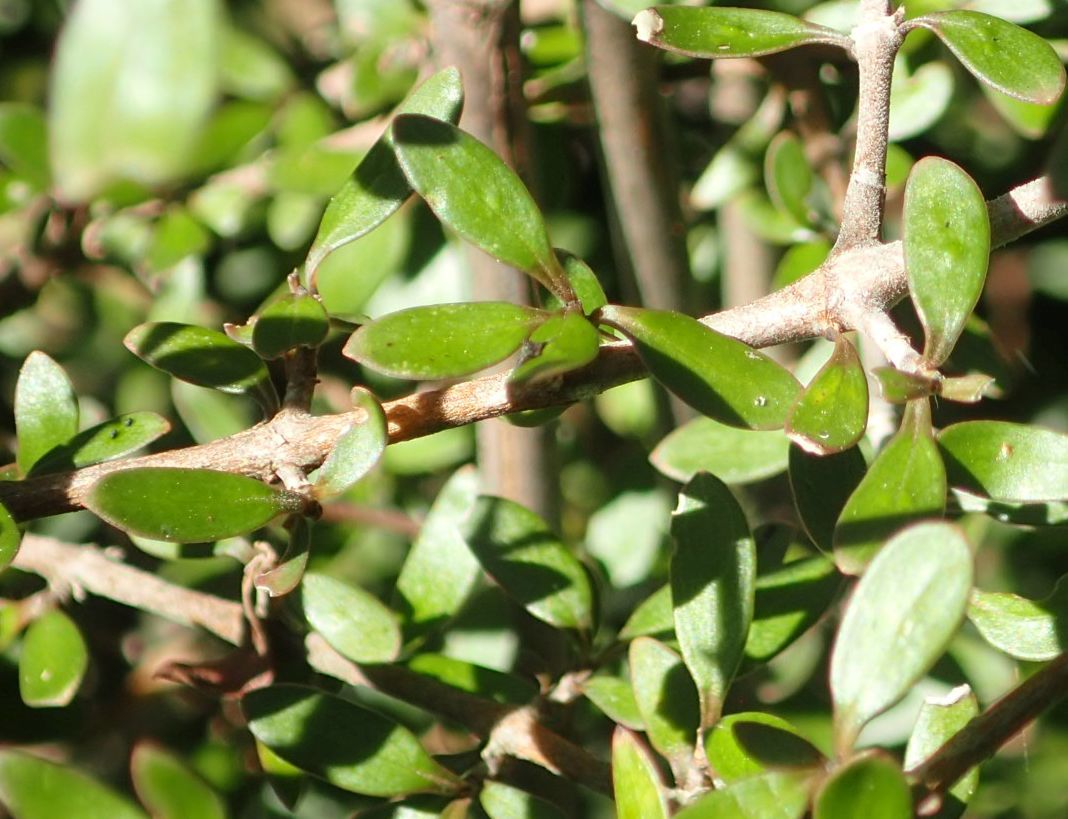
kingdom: Plantae
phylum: Tracheophyta
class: Magnoliopsida
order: Gentianales
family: Rubiaceae
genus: Coprosma
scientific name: Coprosma propinqua
